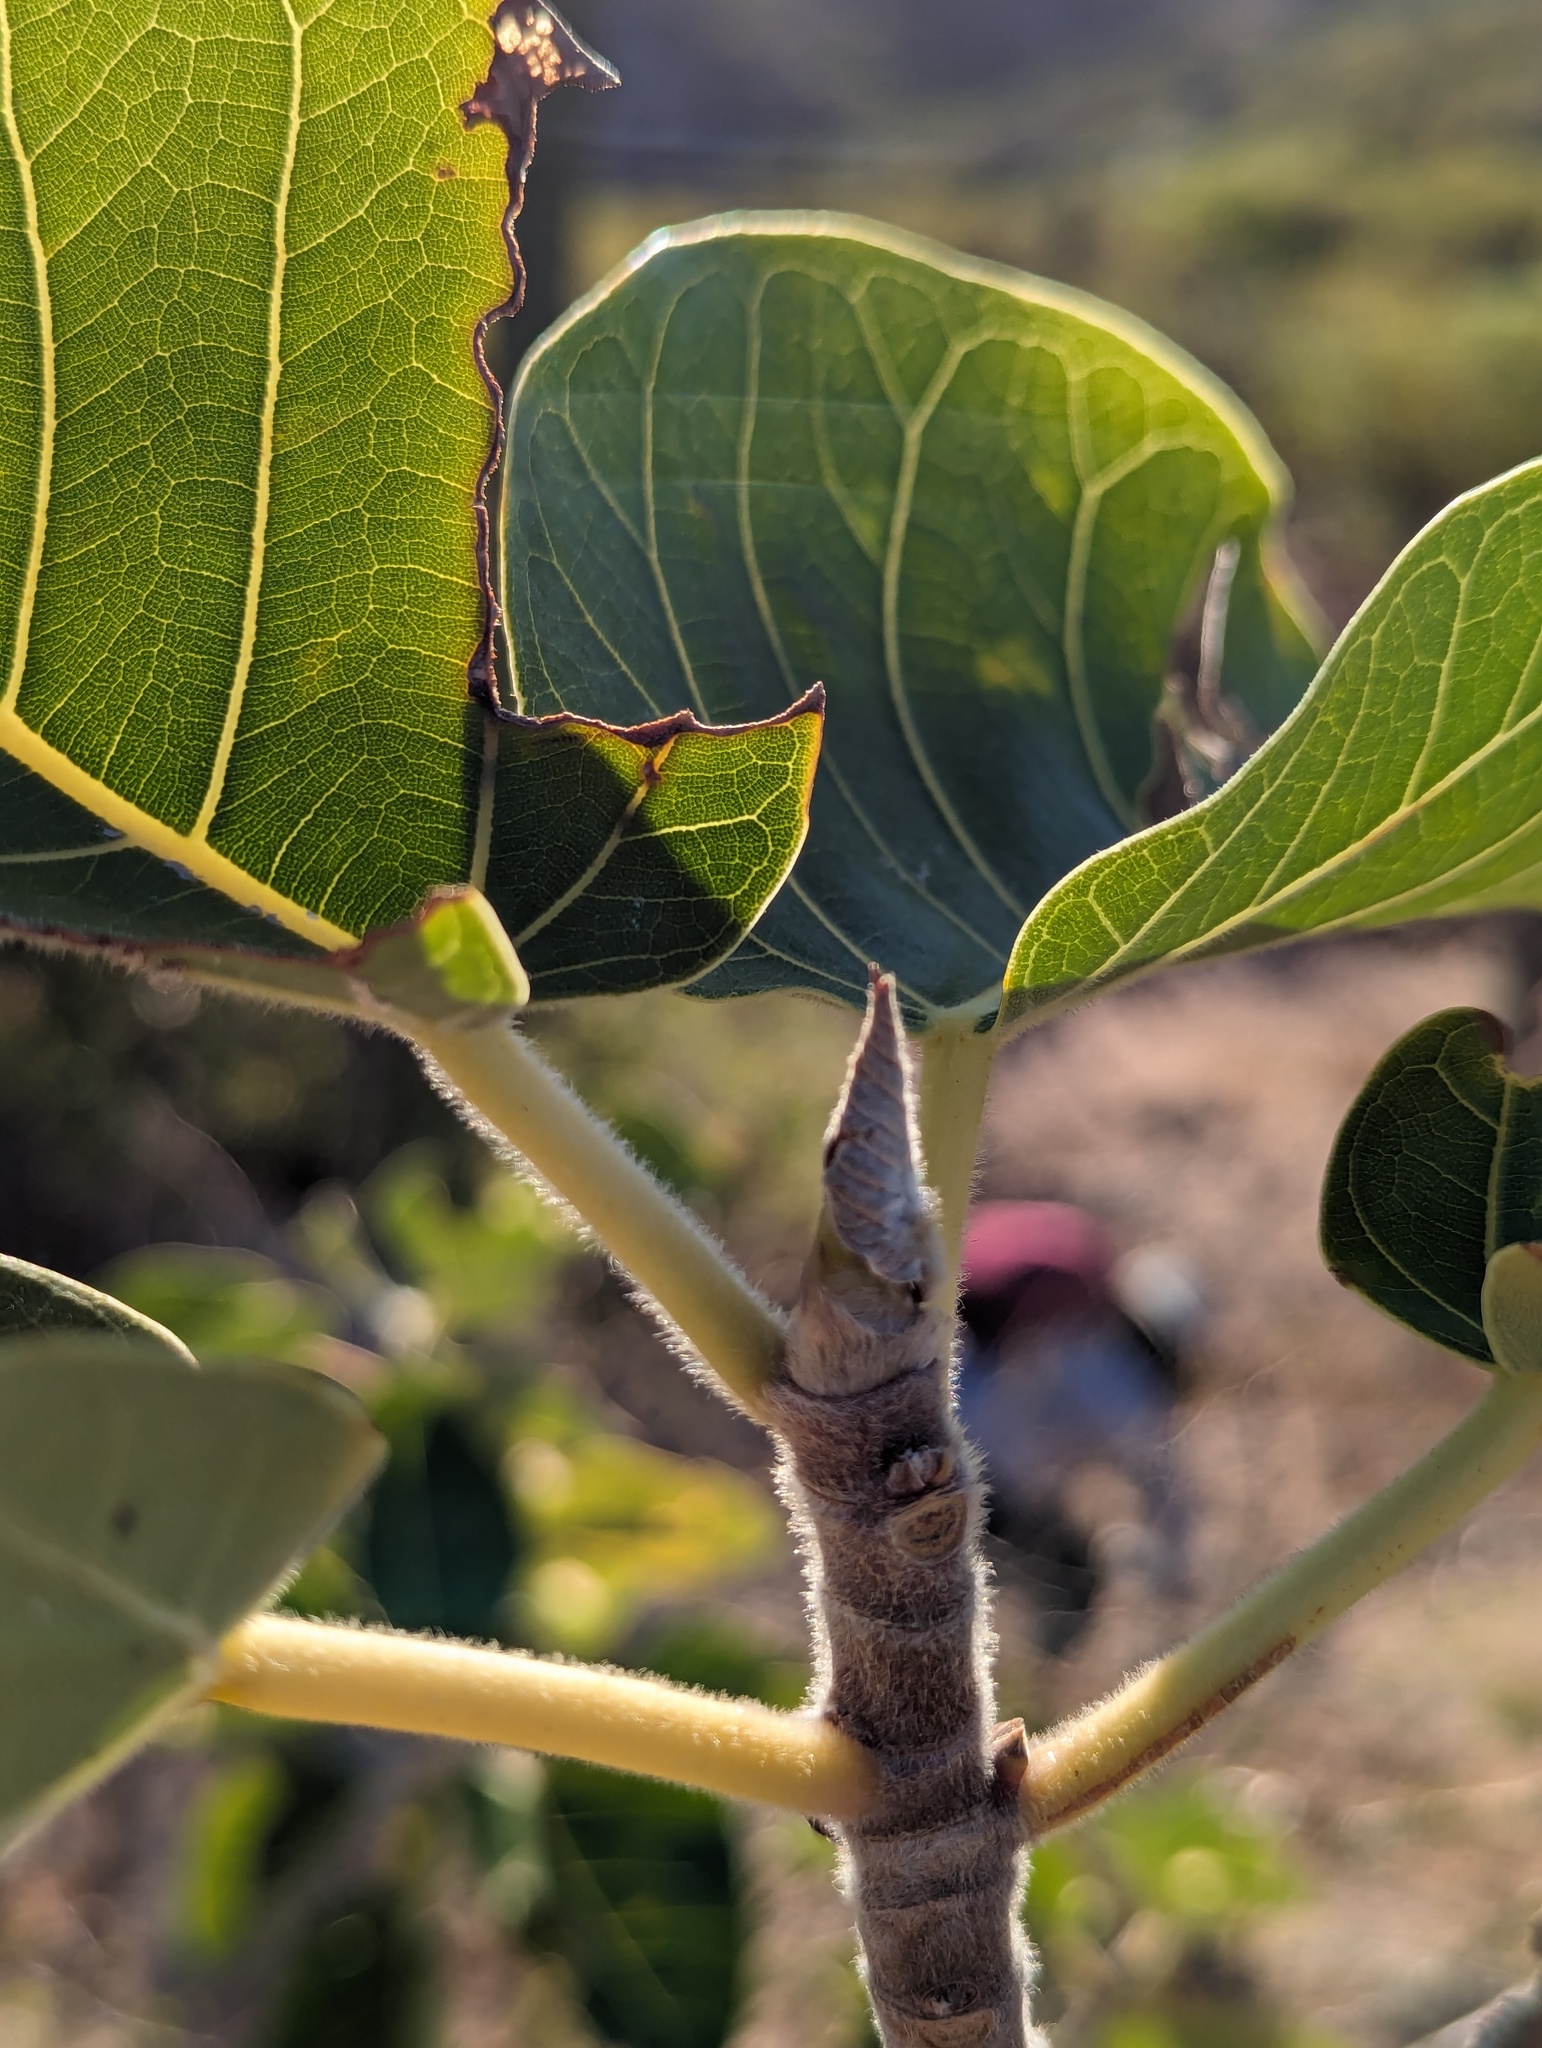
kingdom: Plantae
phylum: Tracheophyta
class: Magnoliopsida
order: Rosales
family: Moraceae
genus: Ficus
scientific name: Ficus petiolaris
